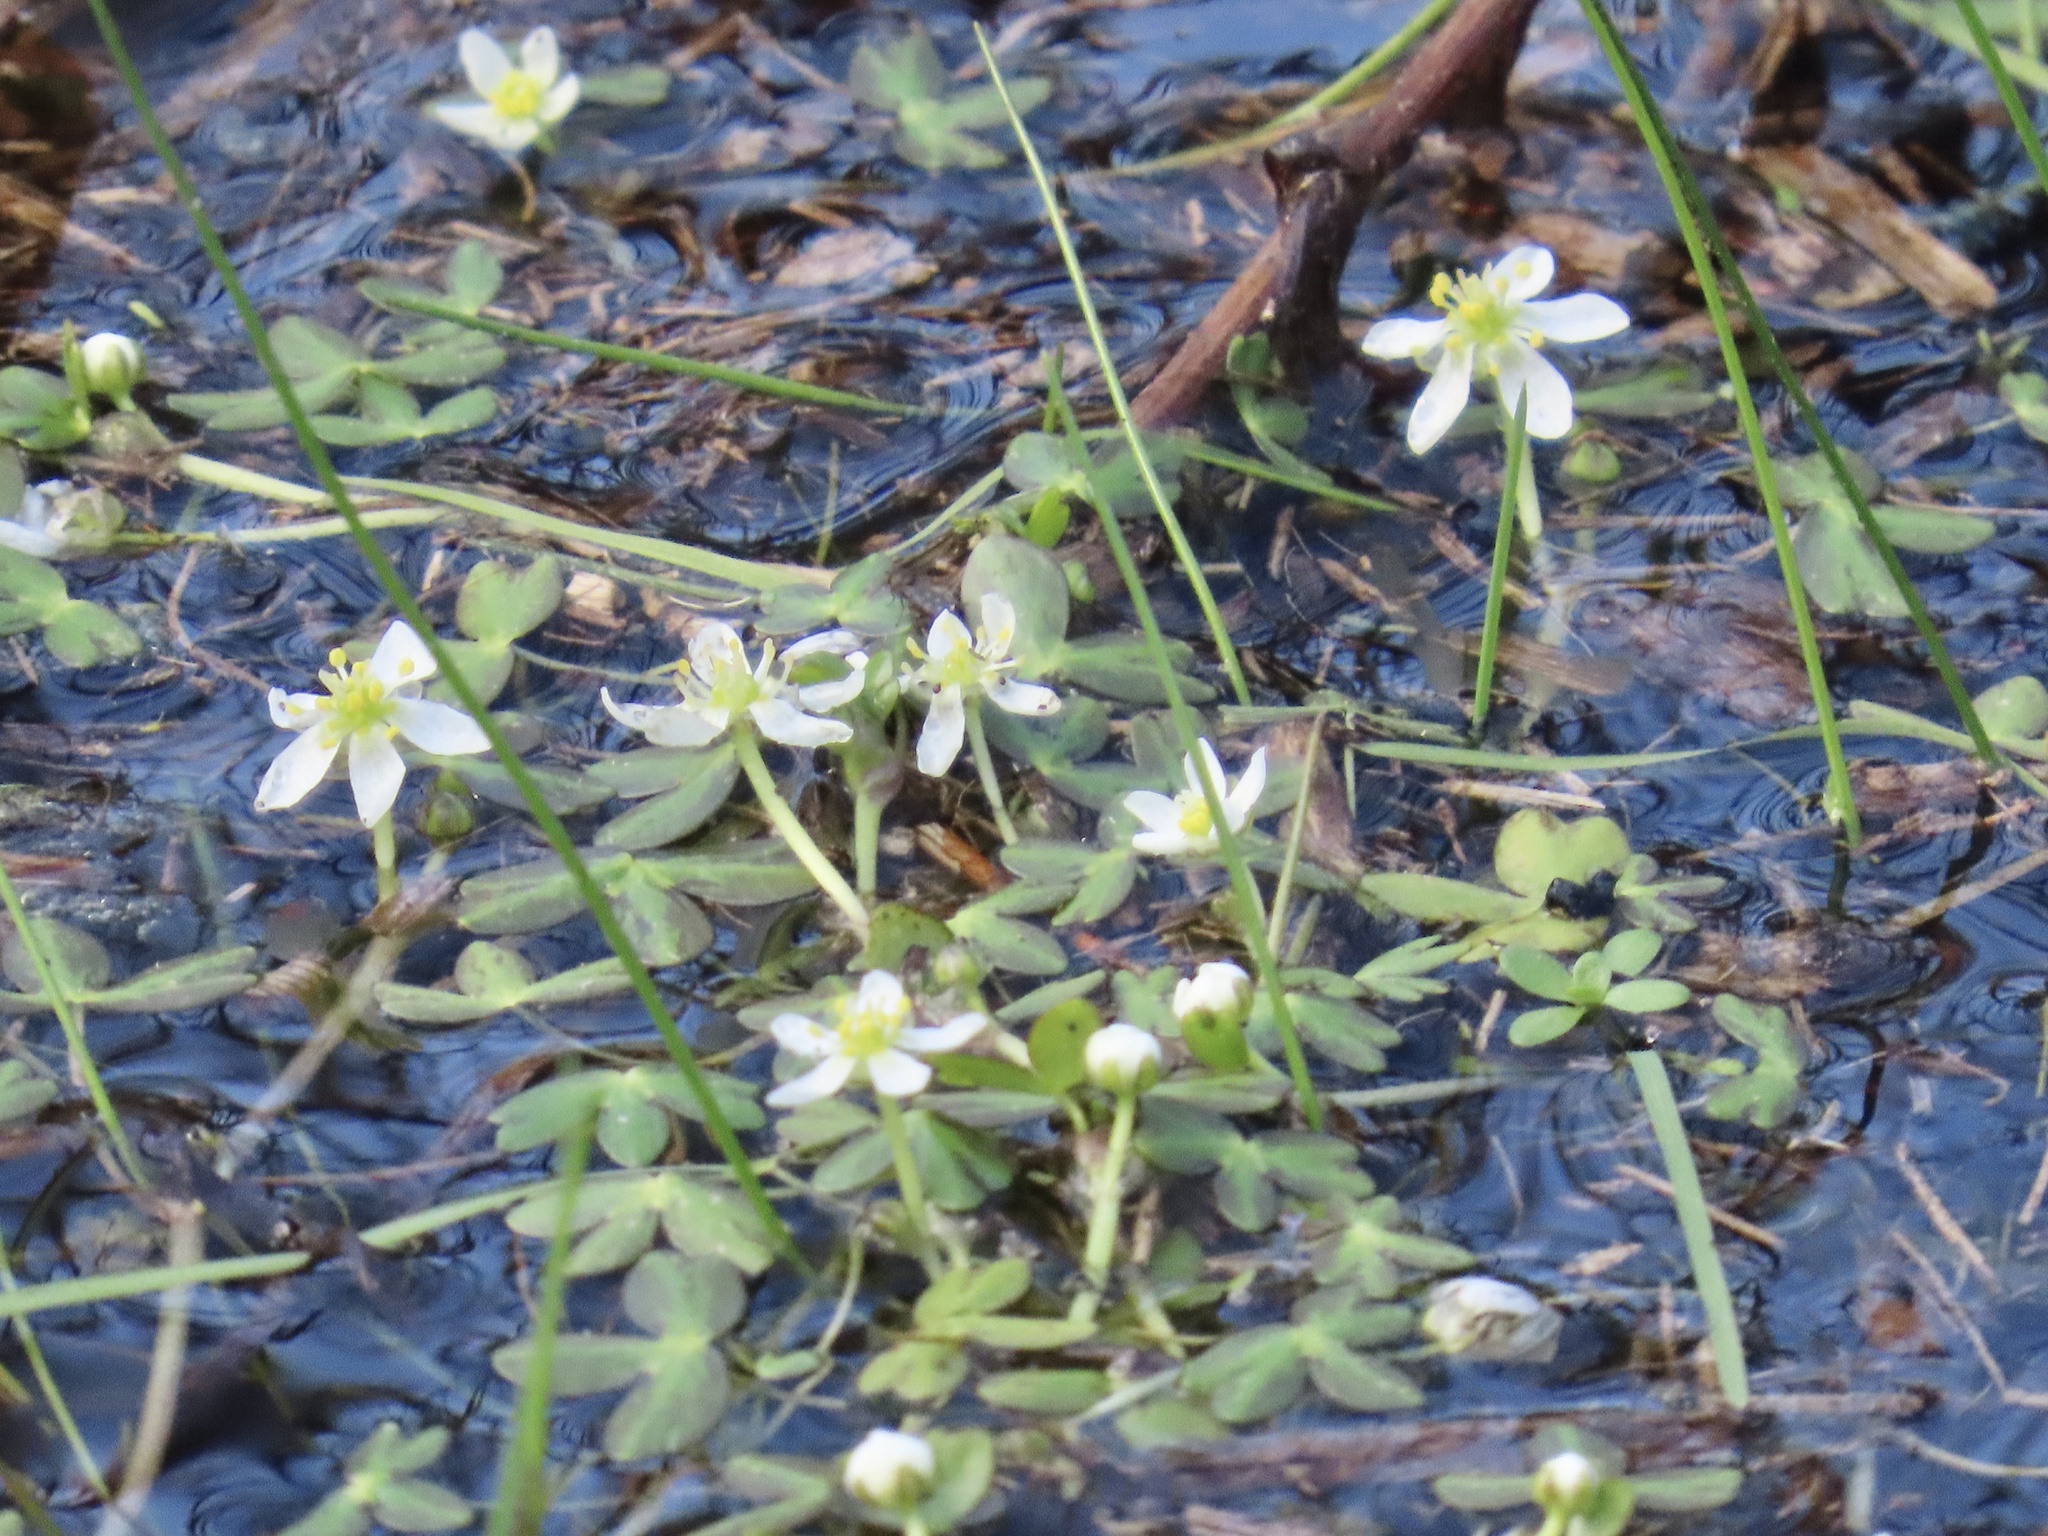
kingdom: Plantae
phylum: Tracheophyta
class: Magnoliopsida
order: Ranunculales
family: Ranunculaceae
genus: Ranunculus
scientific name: Ranunculus lobbii
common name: Lobb's buttercup
